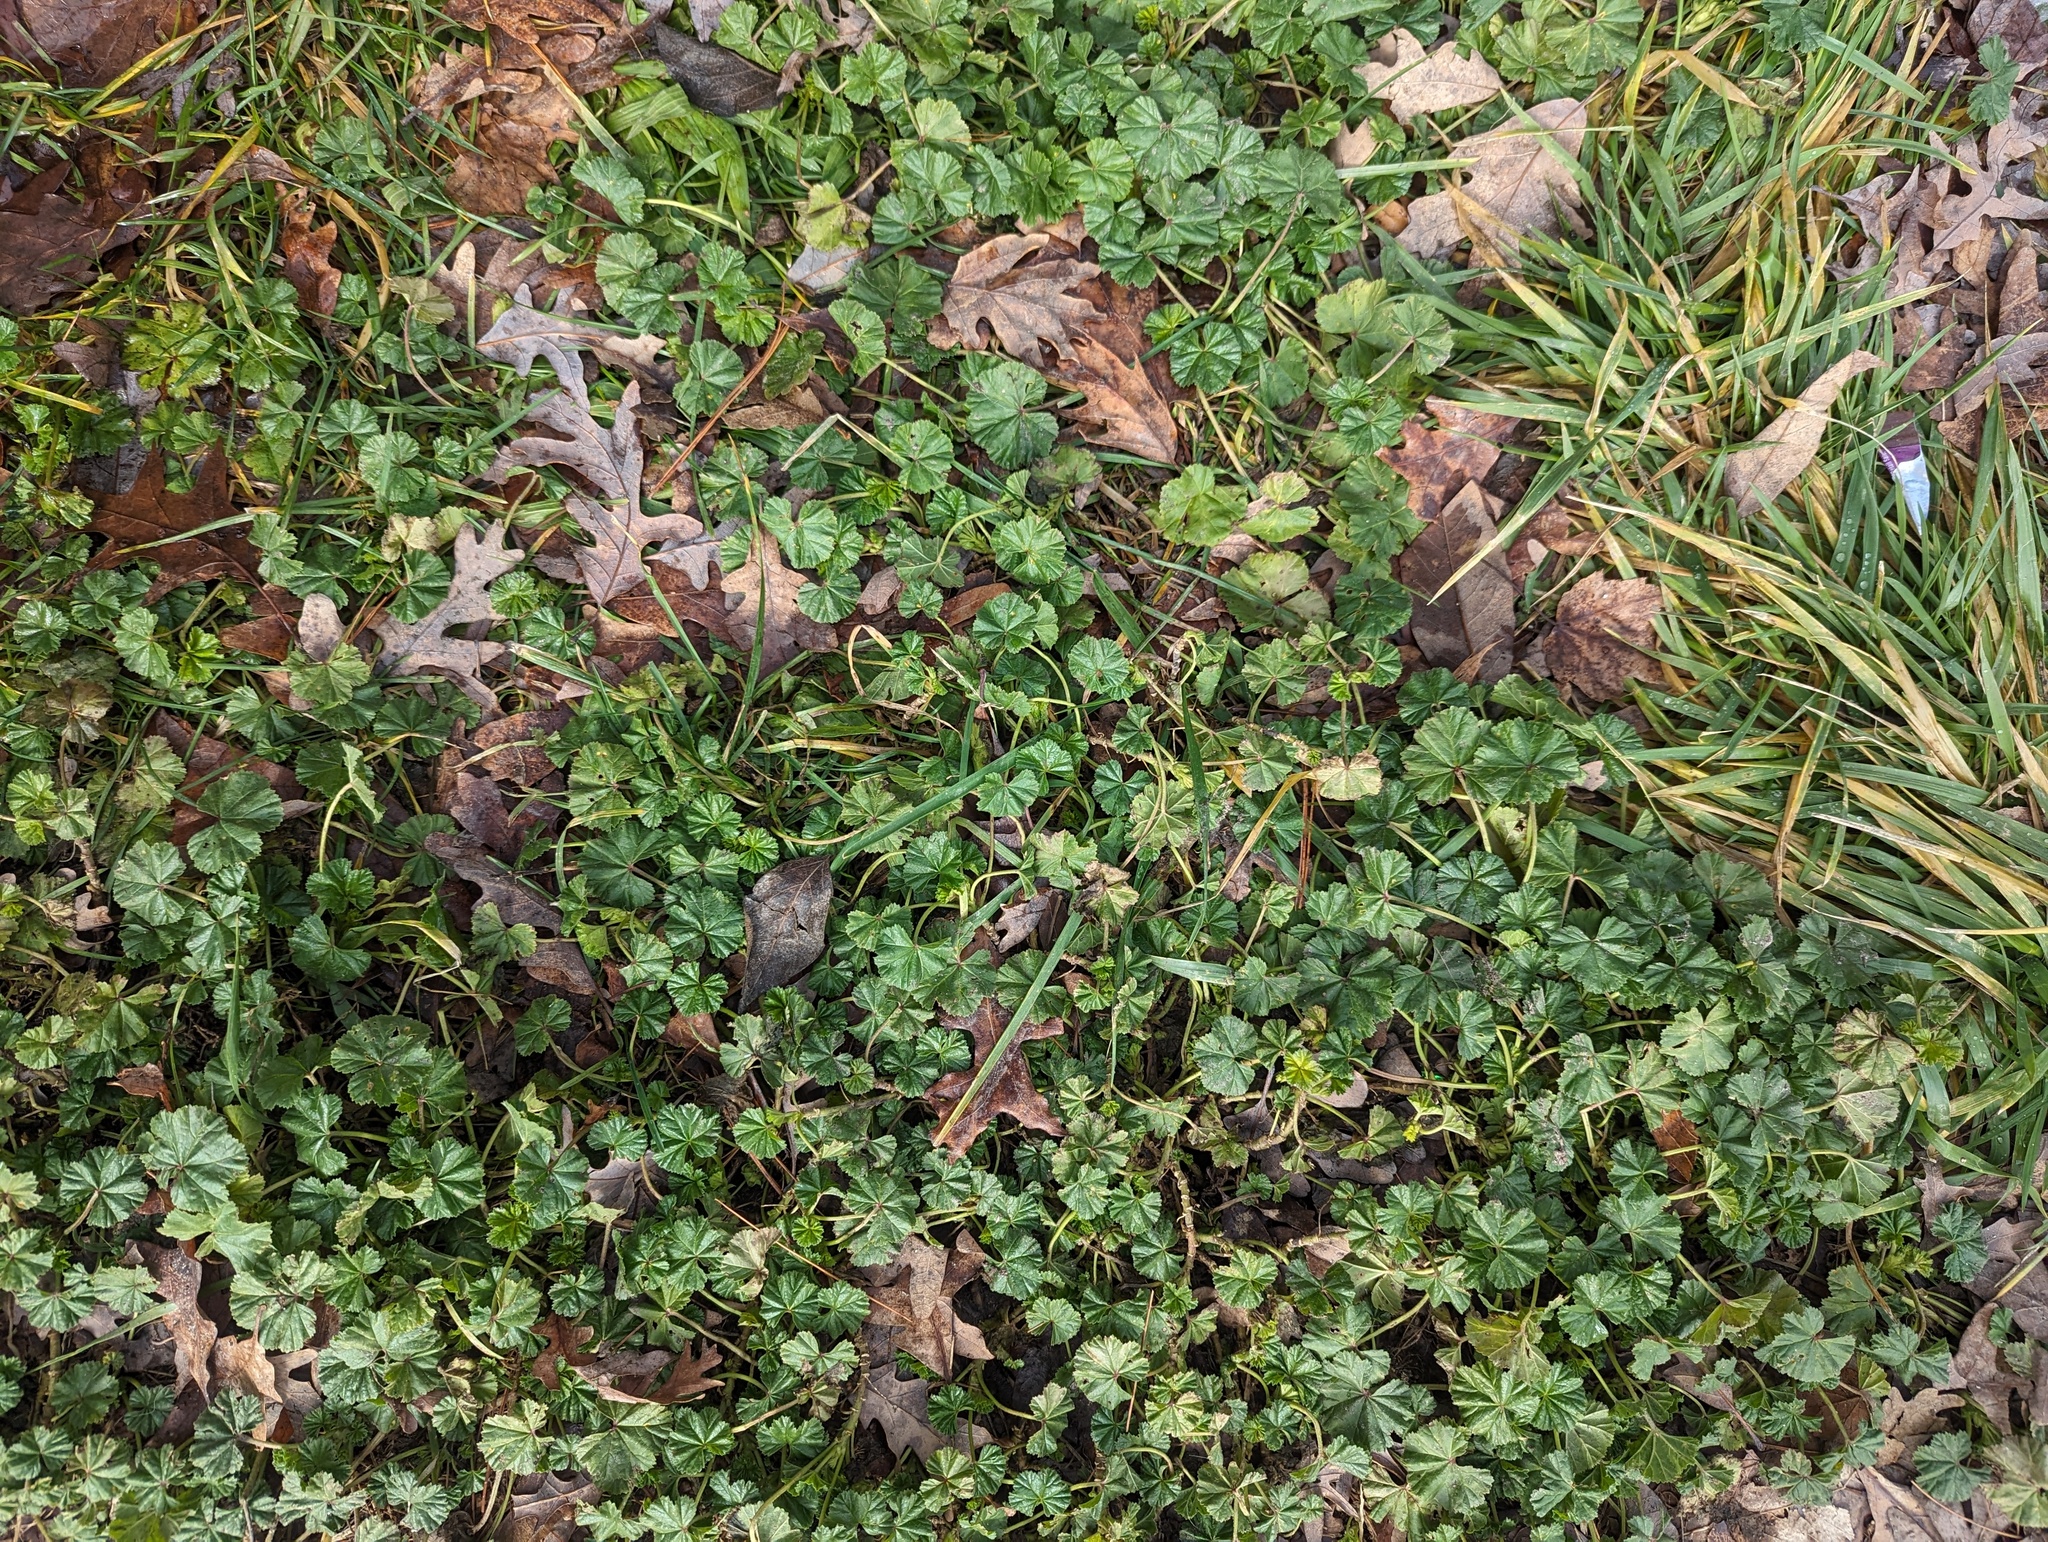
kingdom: Plantae
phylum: Tracheophyta
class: Magnoliopsida
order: Malvales
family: Malvaceae
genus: Malva
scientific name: Malva neglecta
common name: Common mallow
